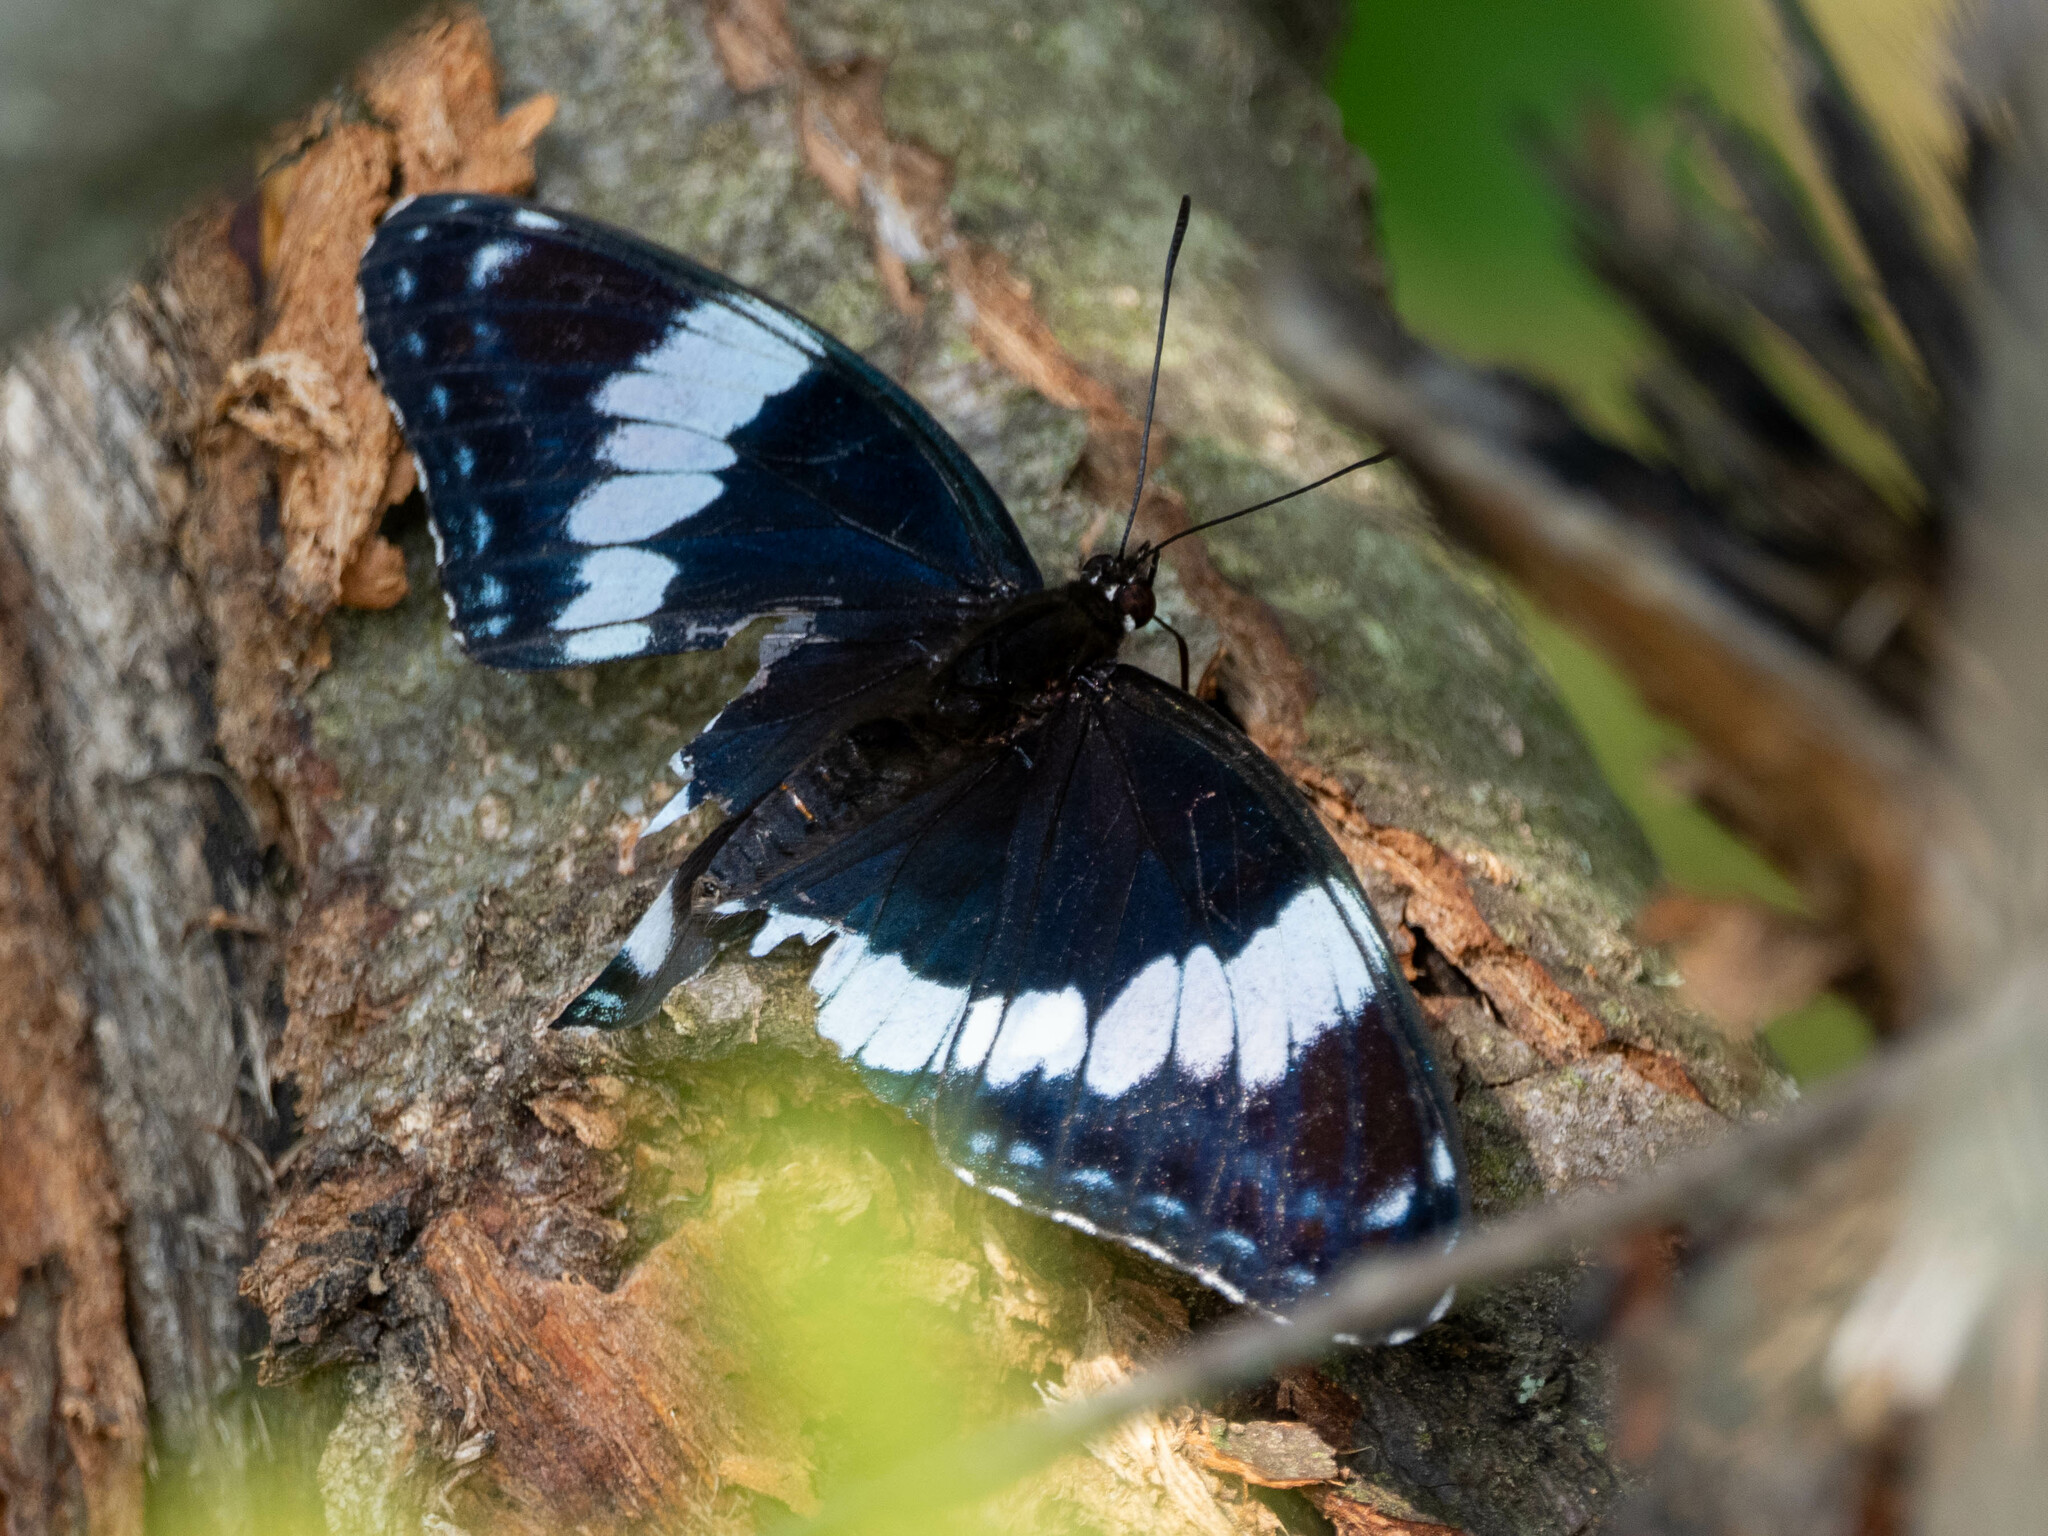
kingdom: Animalia
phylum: Arthropoda
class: Insecta
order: Lepidoptera
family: Nymphalidae
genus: Limenitis
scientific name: Limenitis arthemis
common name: Red-spotted admiral
